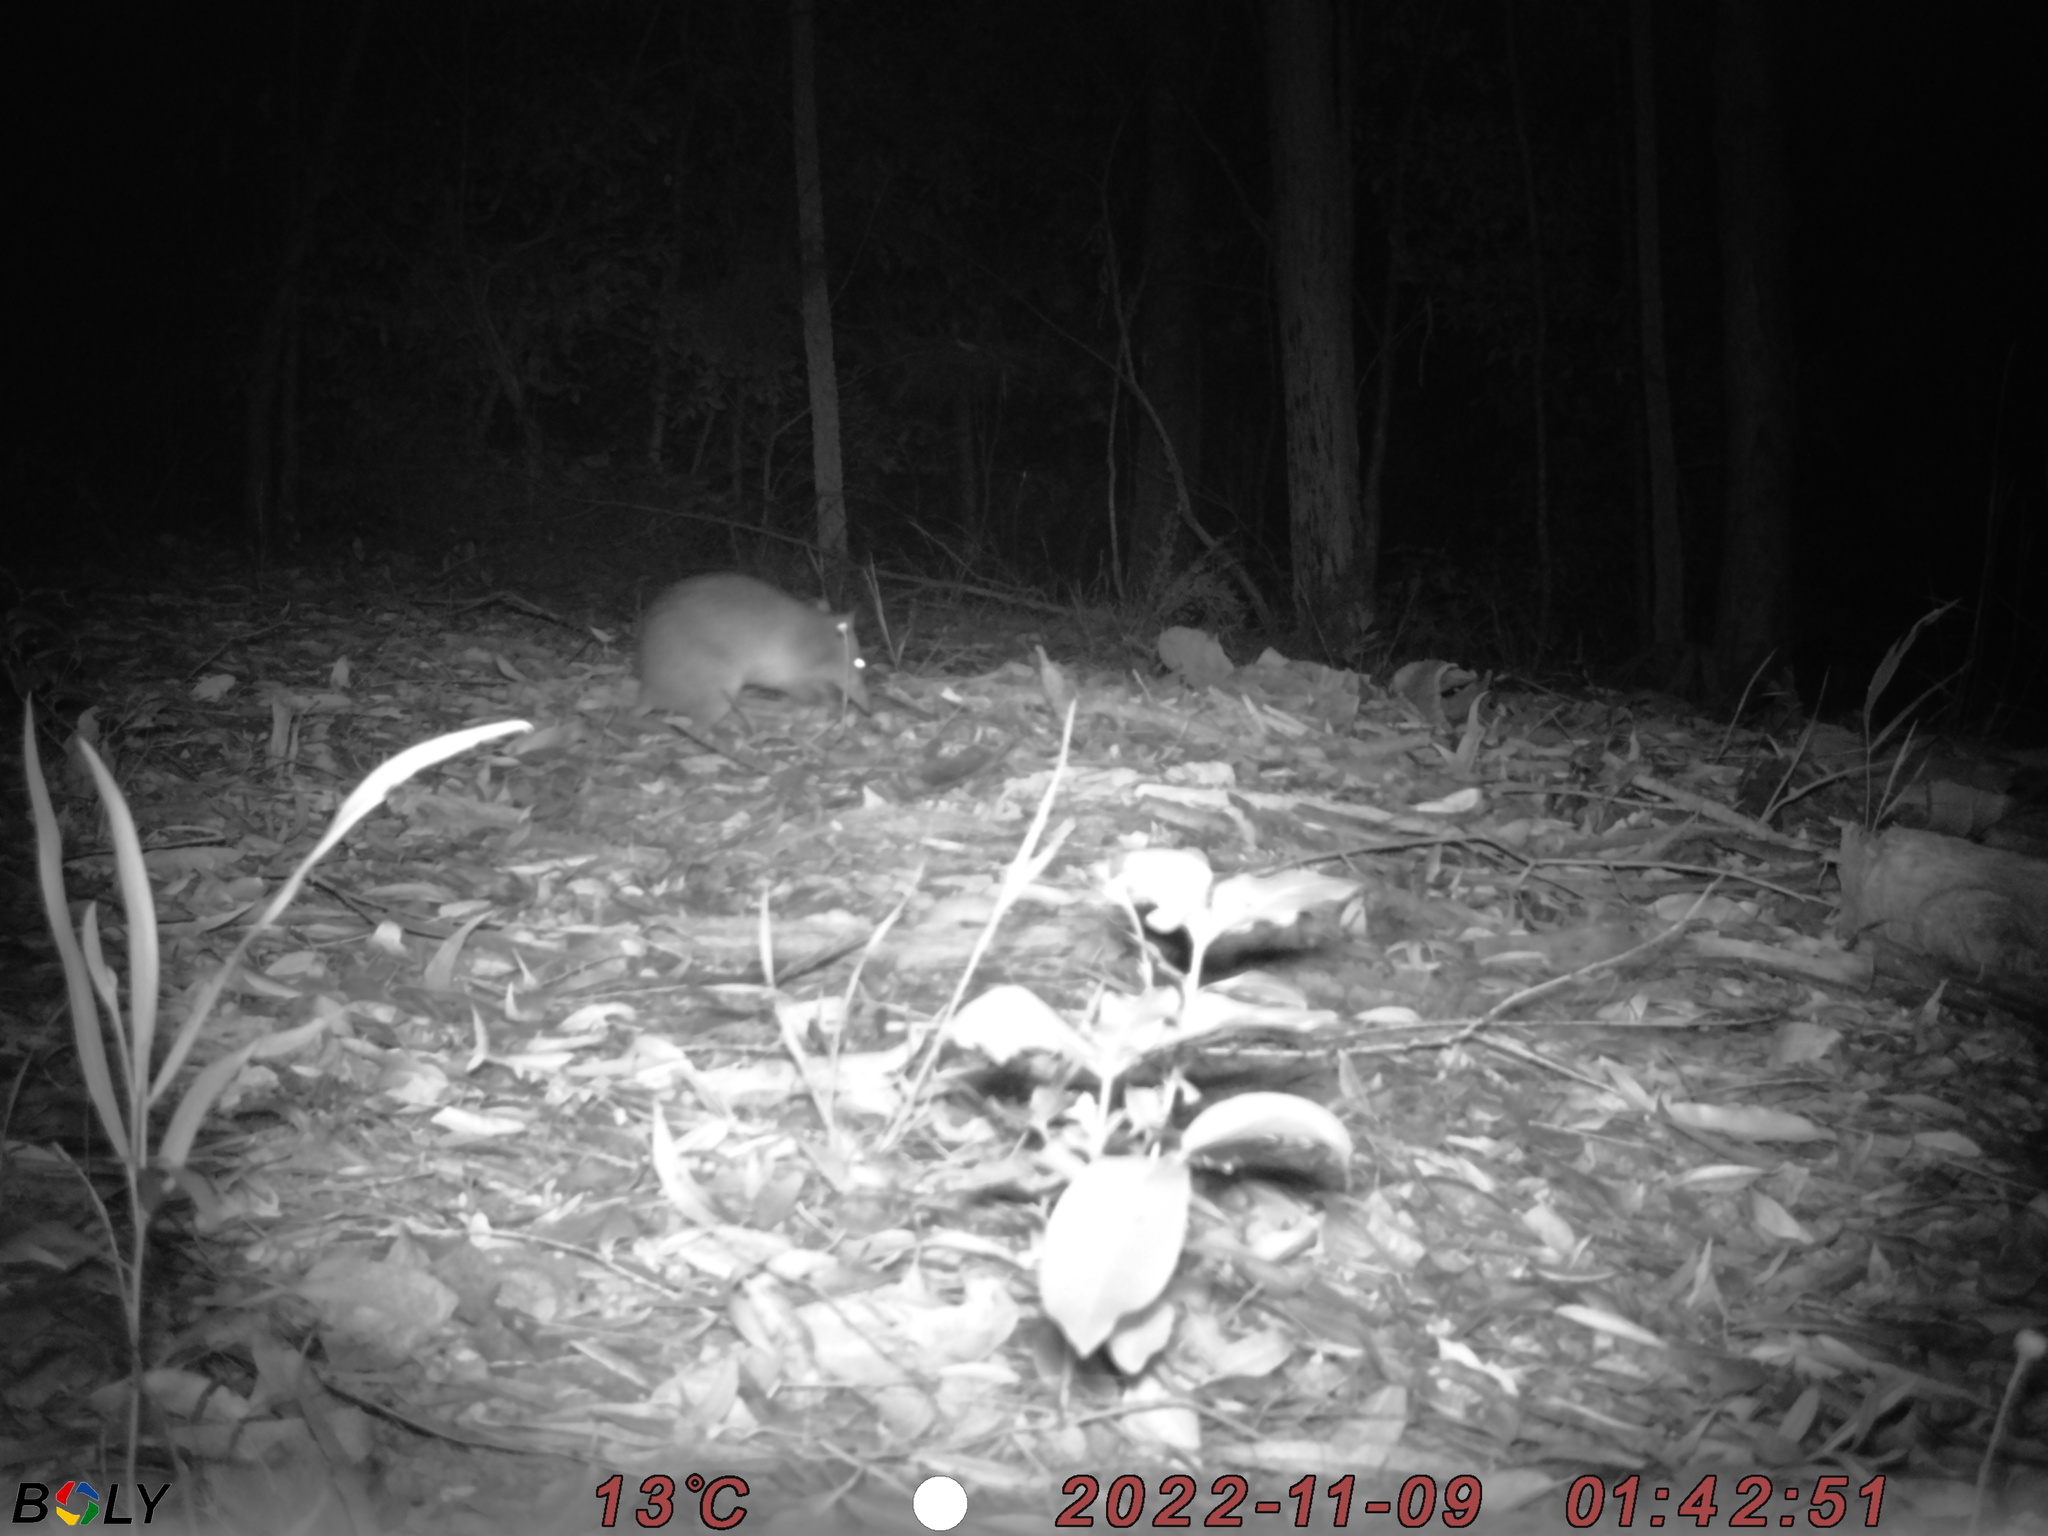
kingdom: Animalia
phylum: Chordata
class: Mammalia
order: Peramelemorphia
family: Peramelidae
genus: Perameles
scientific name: Perameles nasuta
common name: Long-nosed bandicoot
